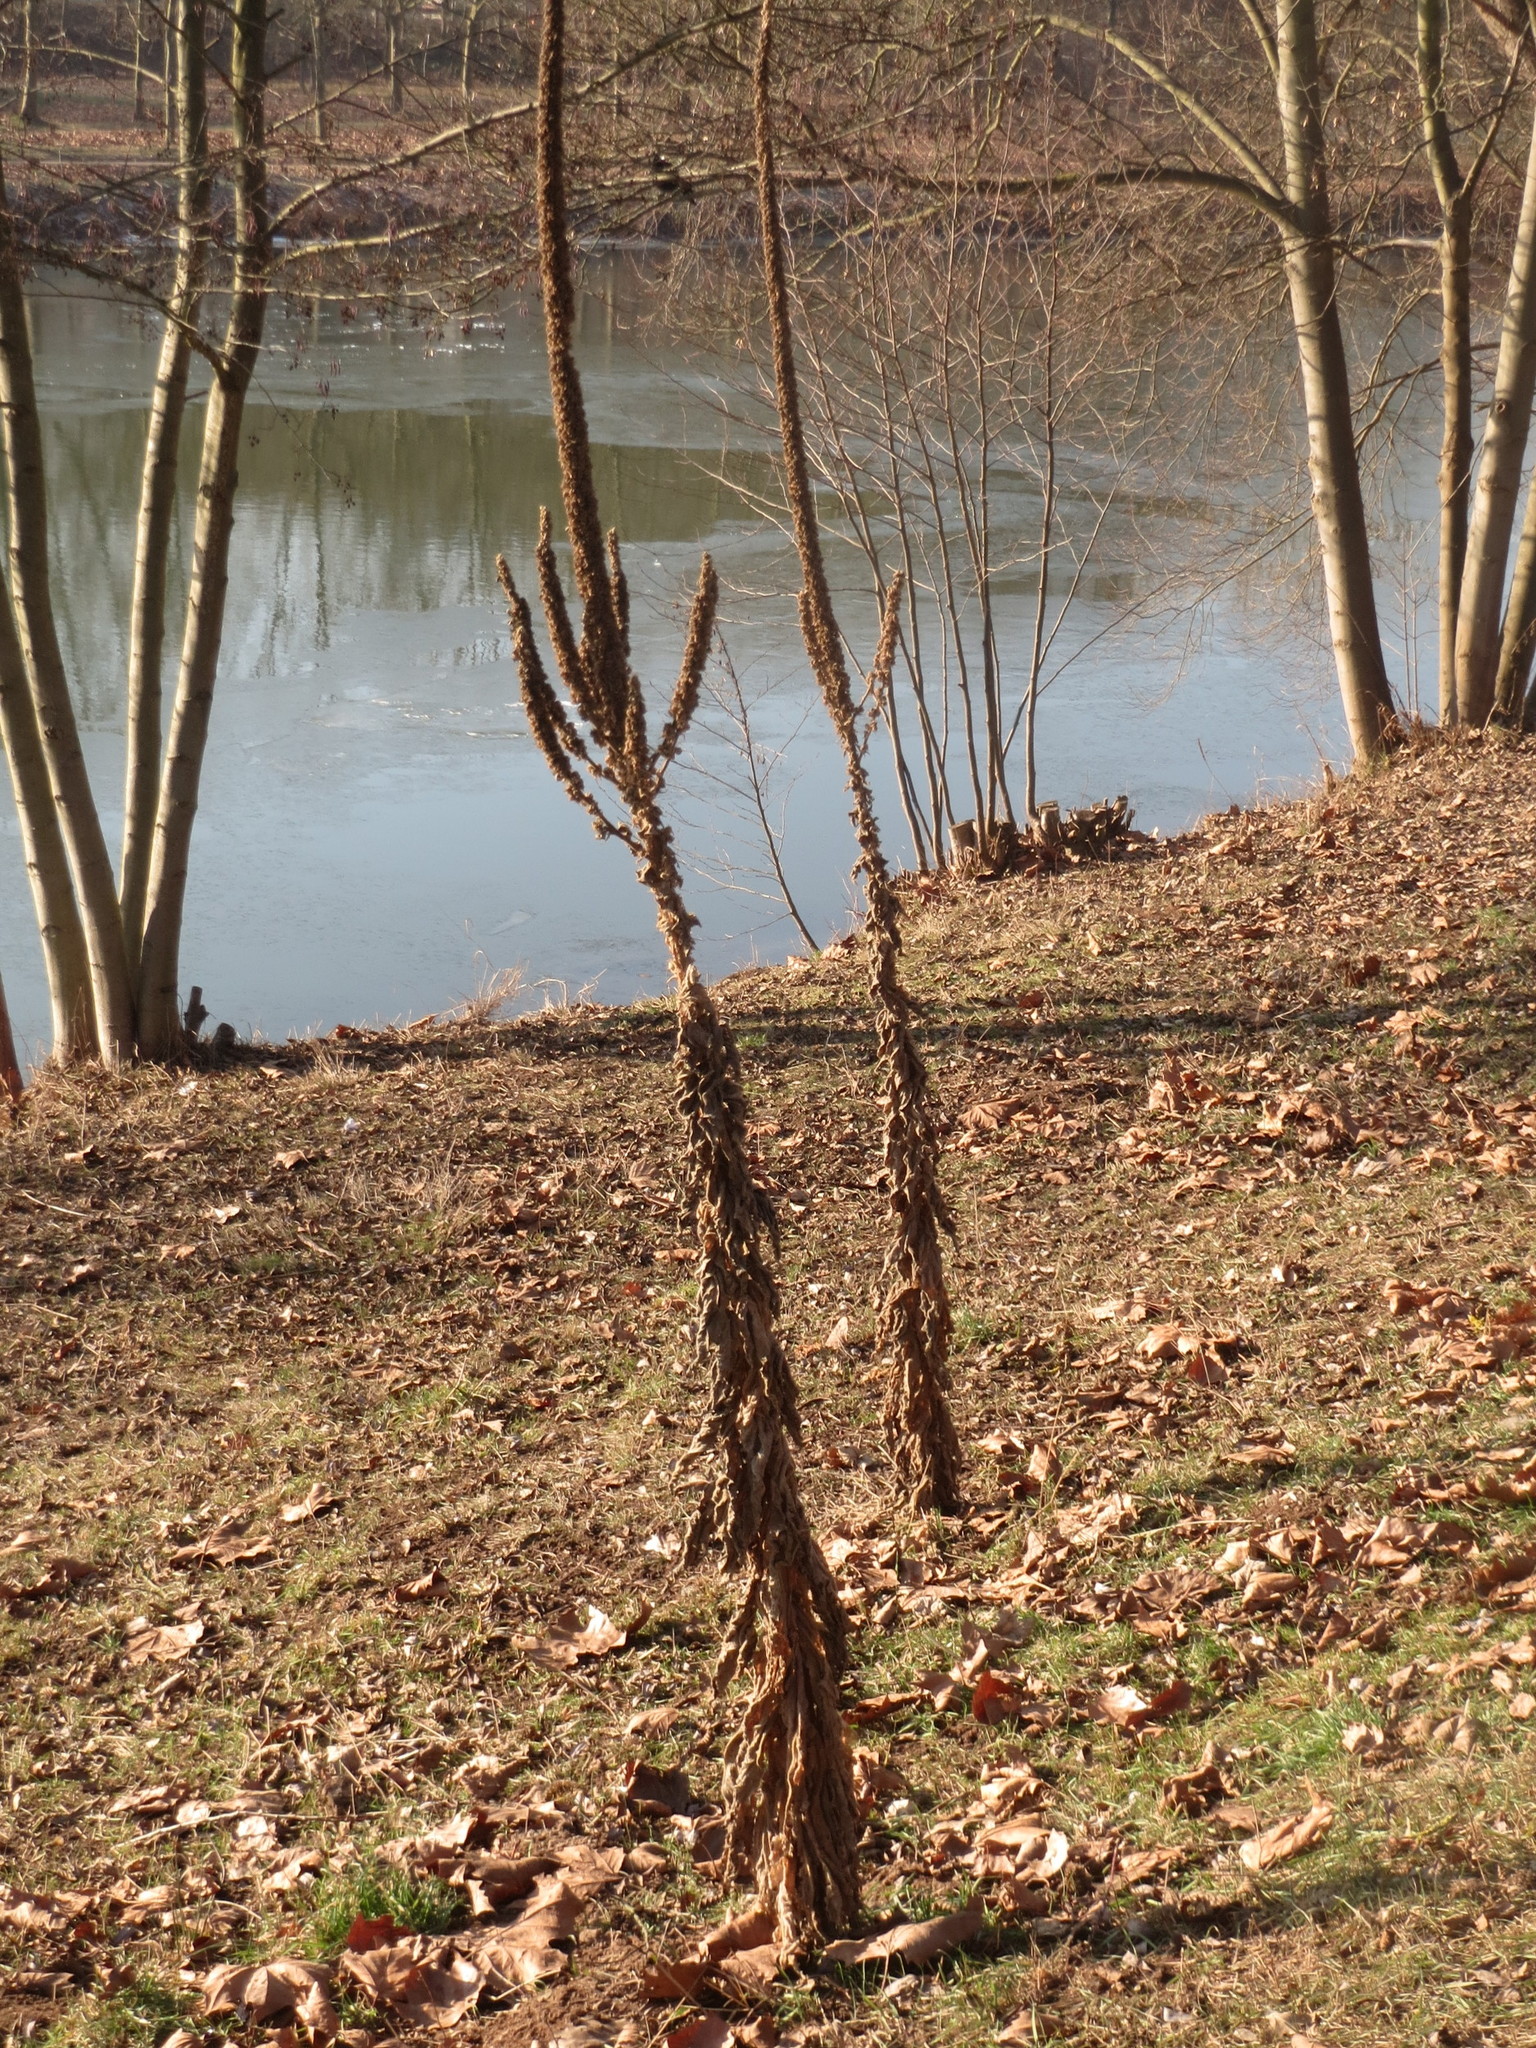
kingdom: Plantae
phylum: Tracheophyta
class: Magnoliopsida
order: Lamiales
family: Scrophulariaceae
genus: Verbascum
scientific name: Verbascum thapsus
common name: Common mullein
